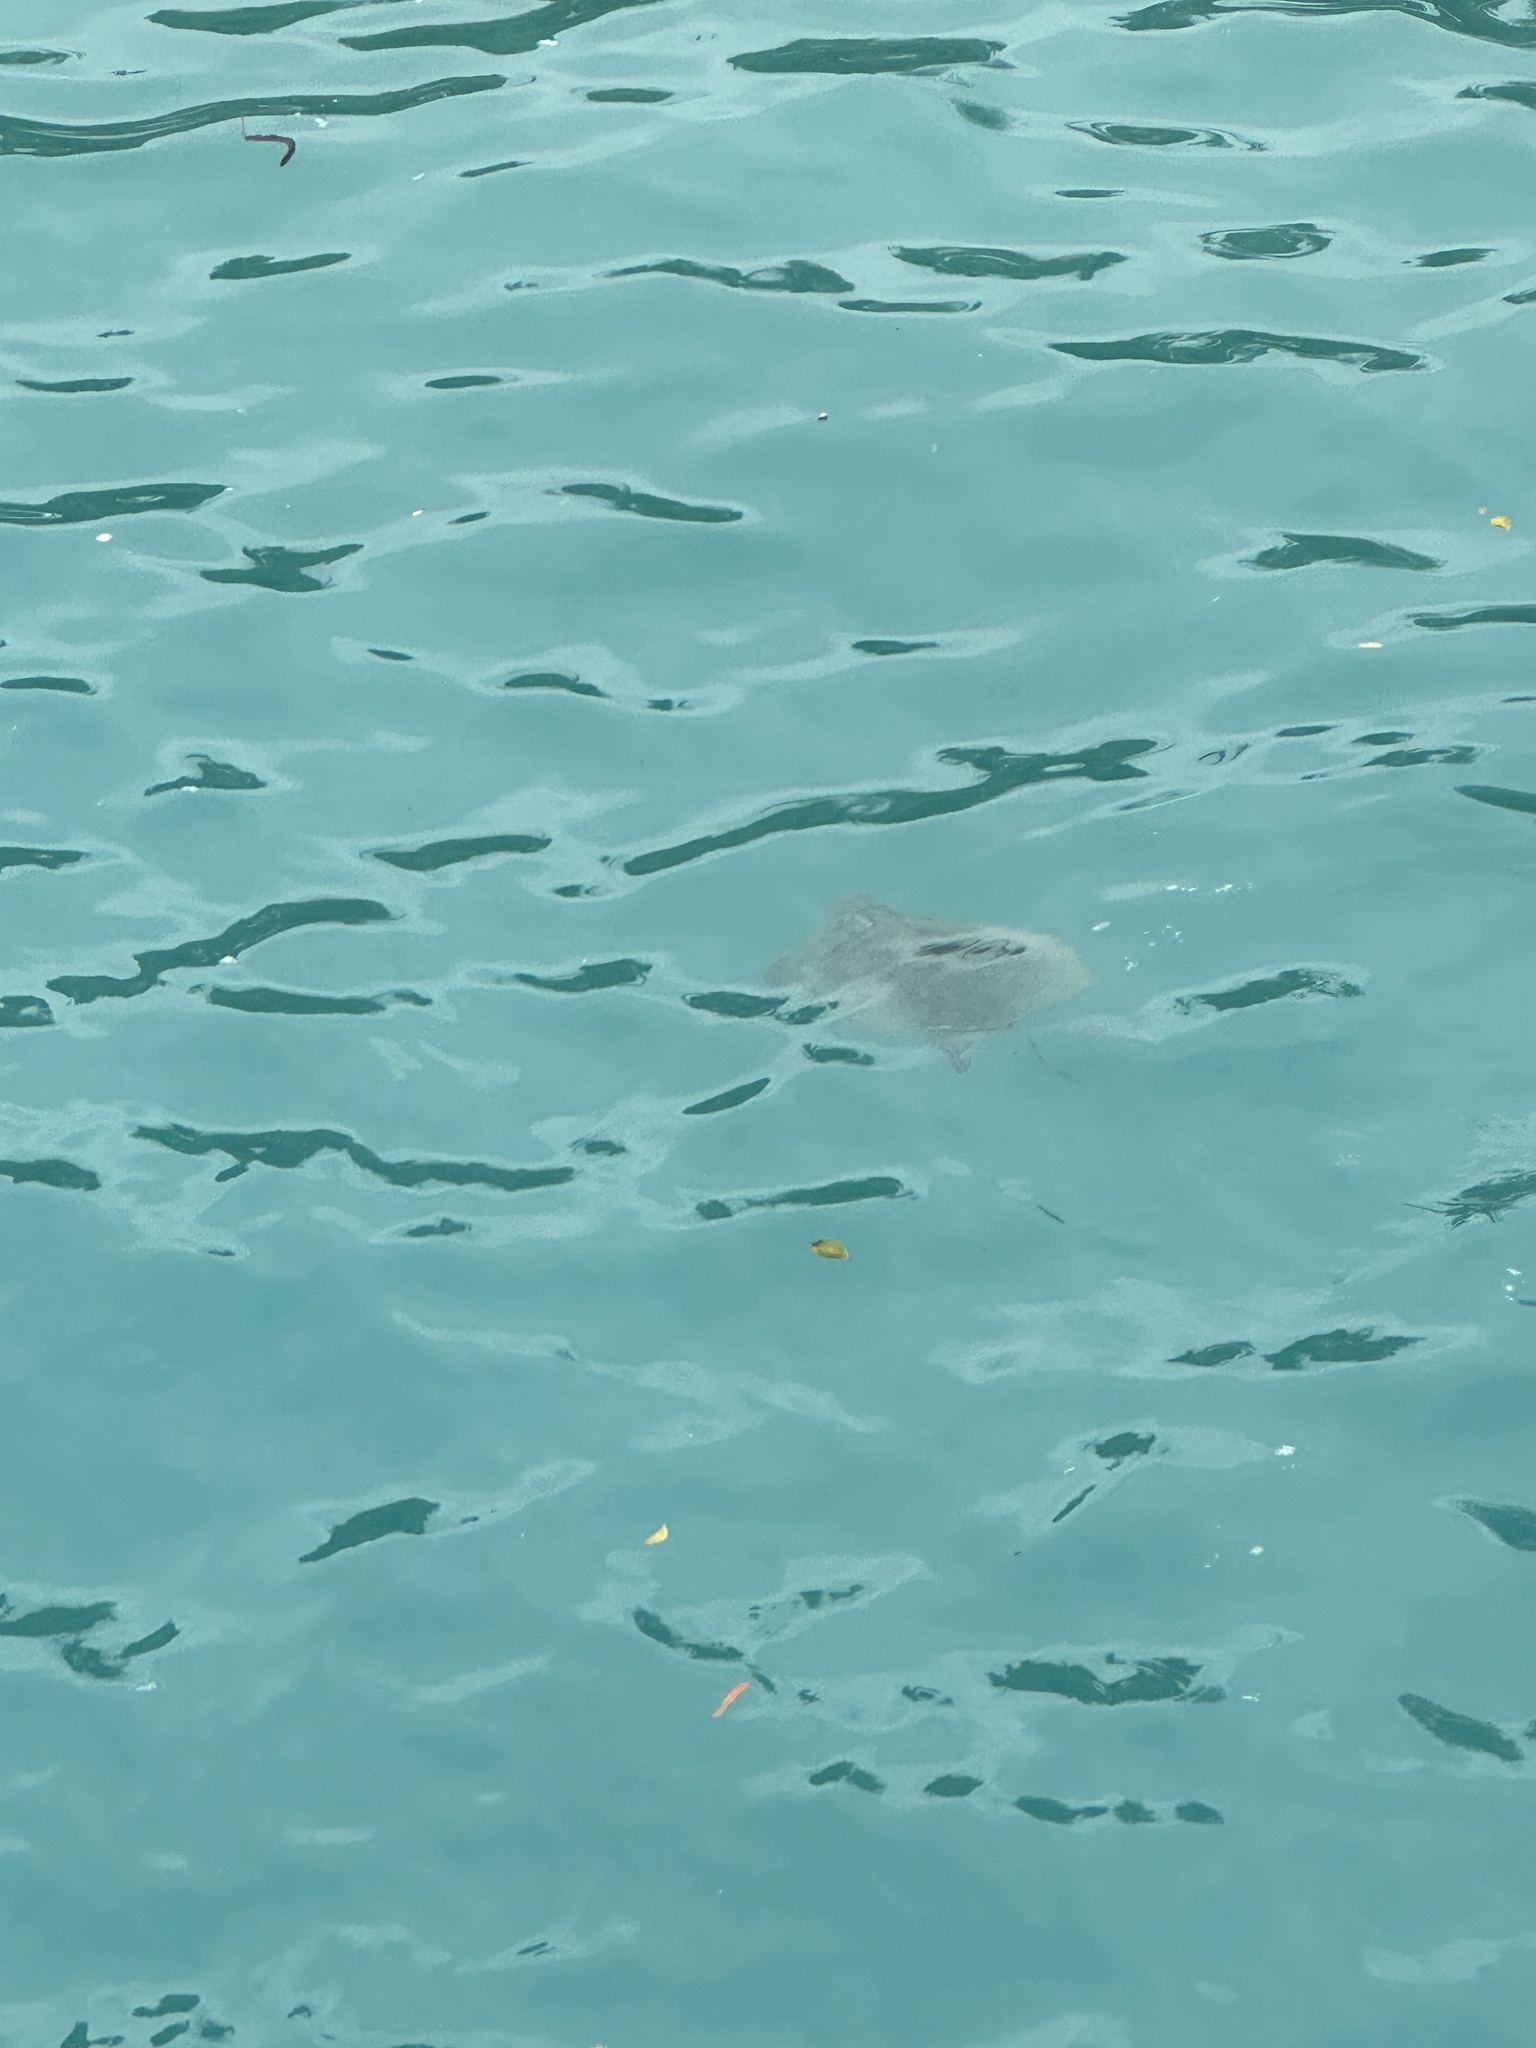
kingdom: Animalia
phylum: Chordata
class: Testudines
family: Cheloniidae
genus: Chelonia
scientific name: Chelonia mydas
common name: Green turtle
